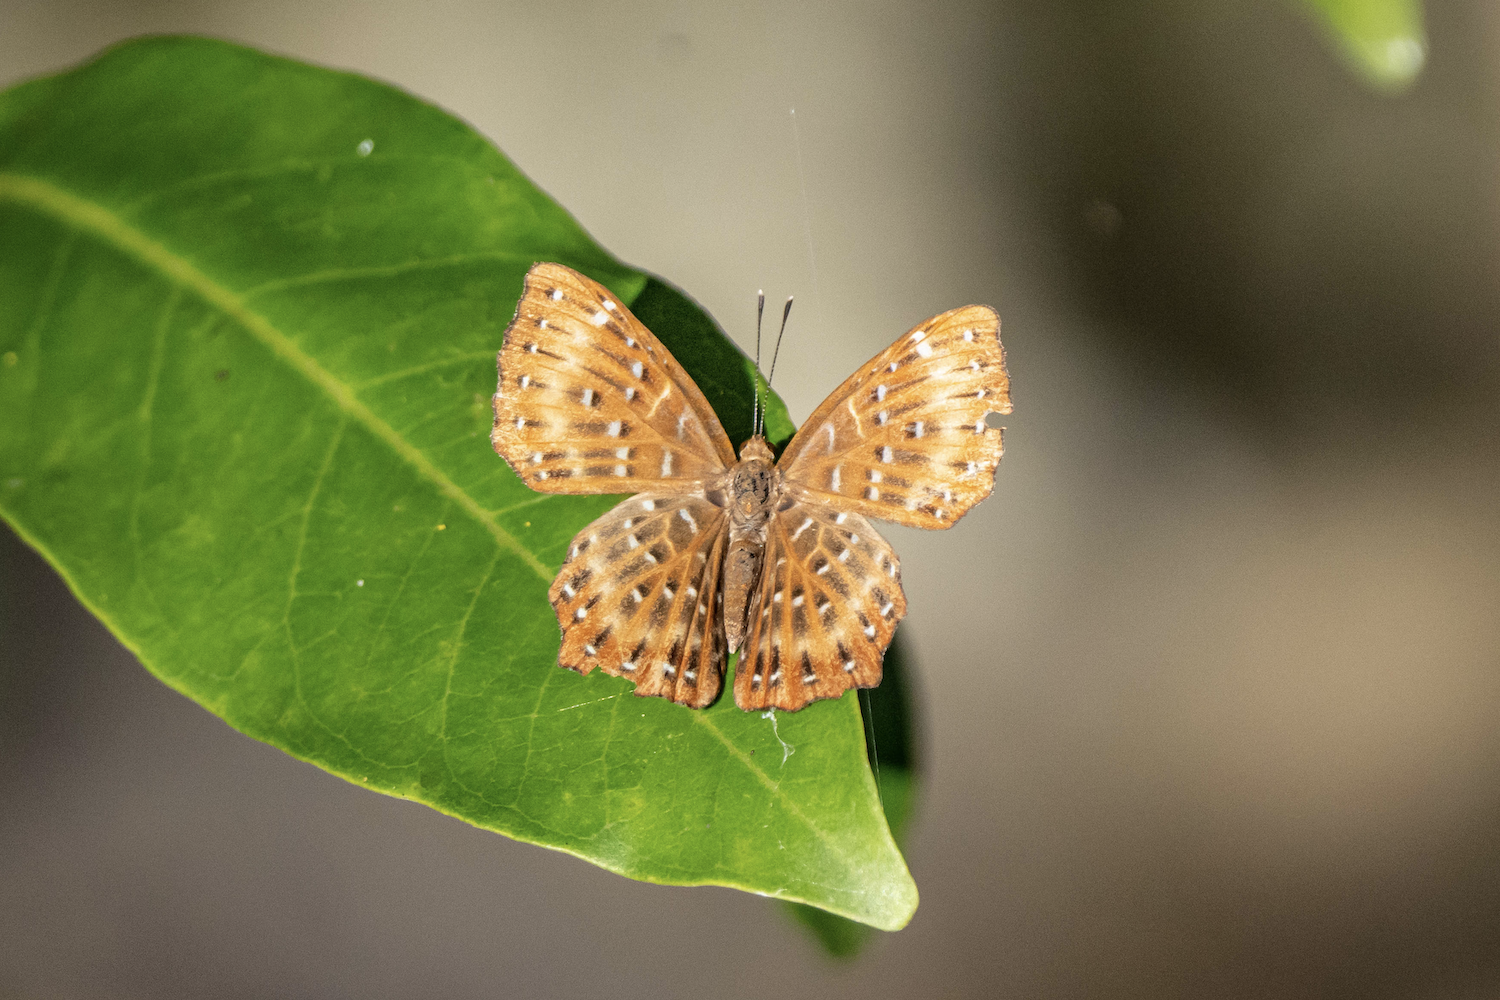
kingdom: Animalia
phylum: Arthropoda
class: Insecta
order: Lepidoptera
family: Riodinidae
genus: Zemeros
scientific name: Zemeros flegyas
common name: Punchinello
